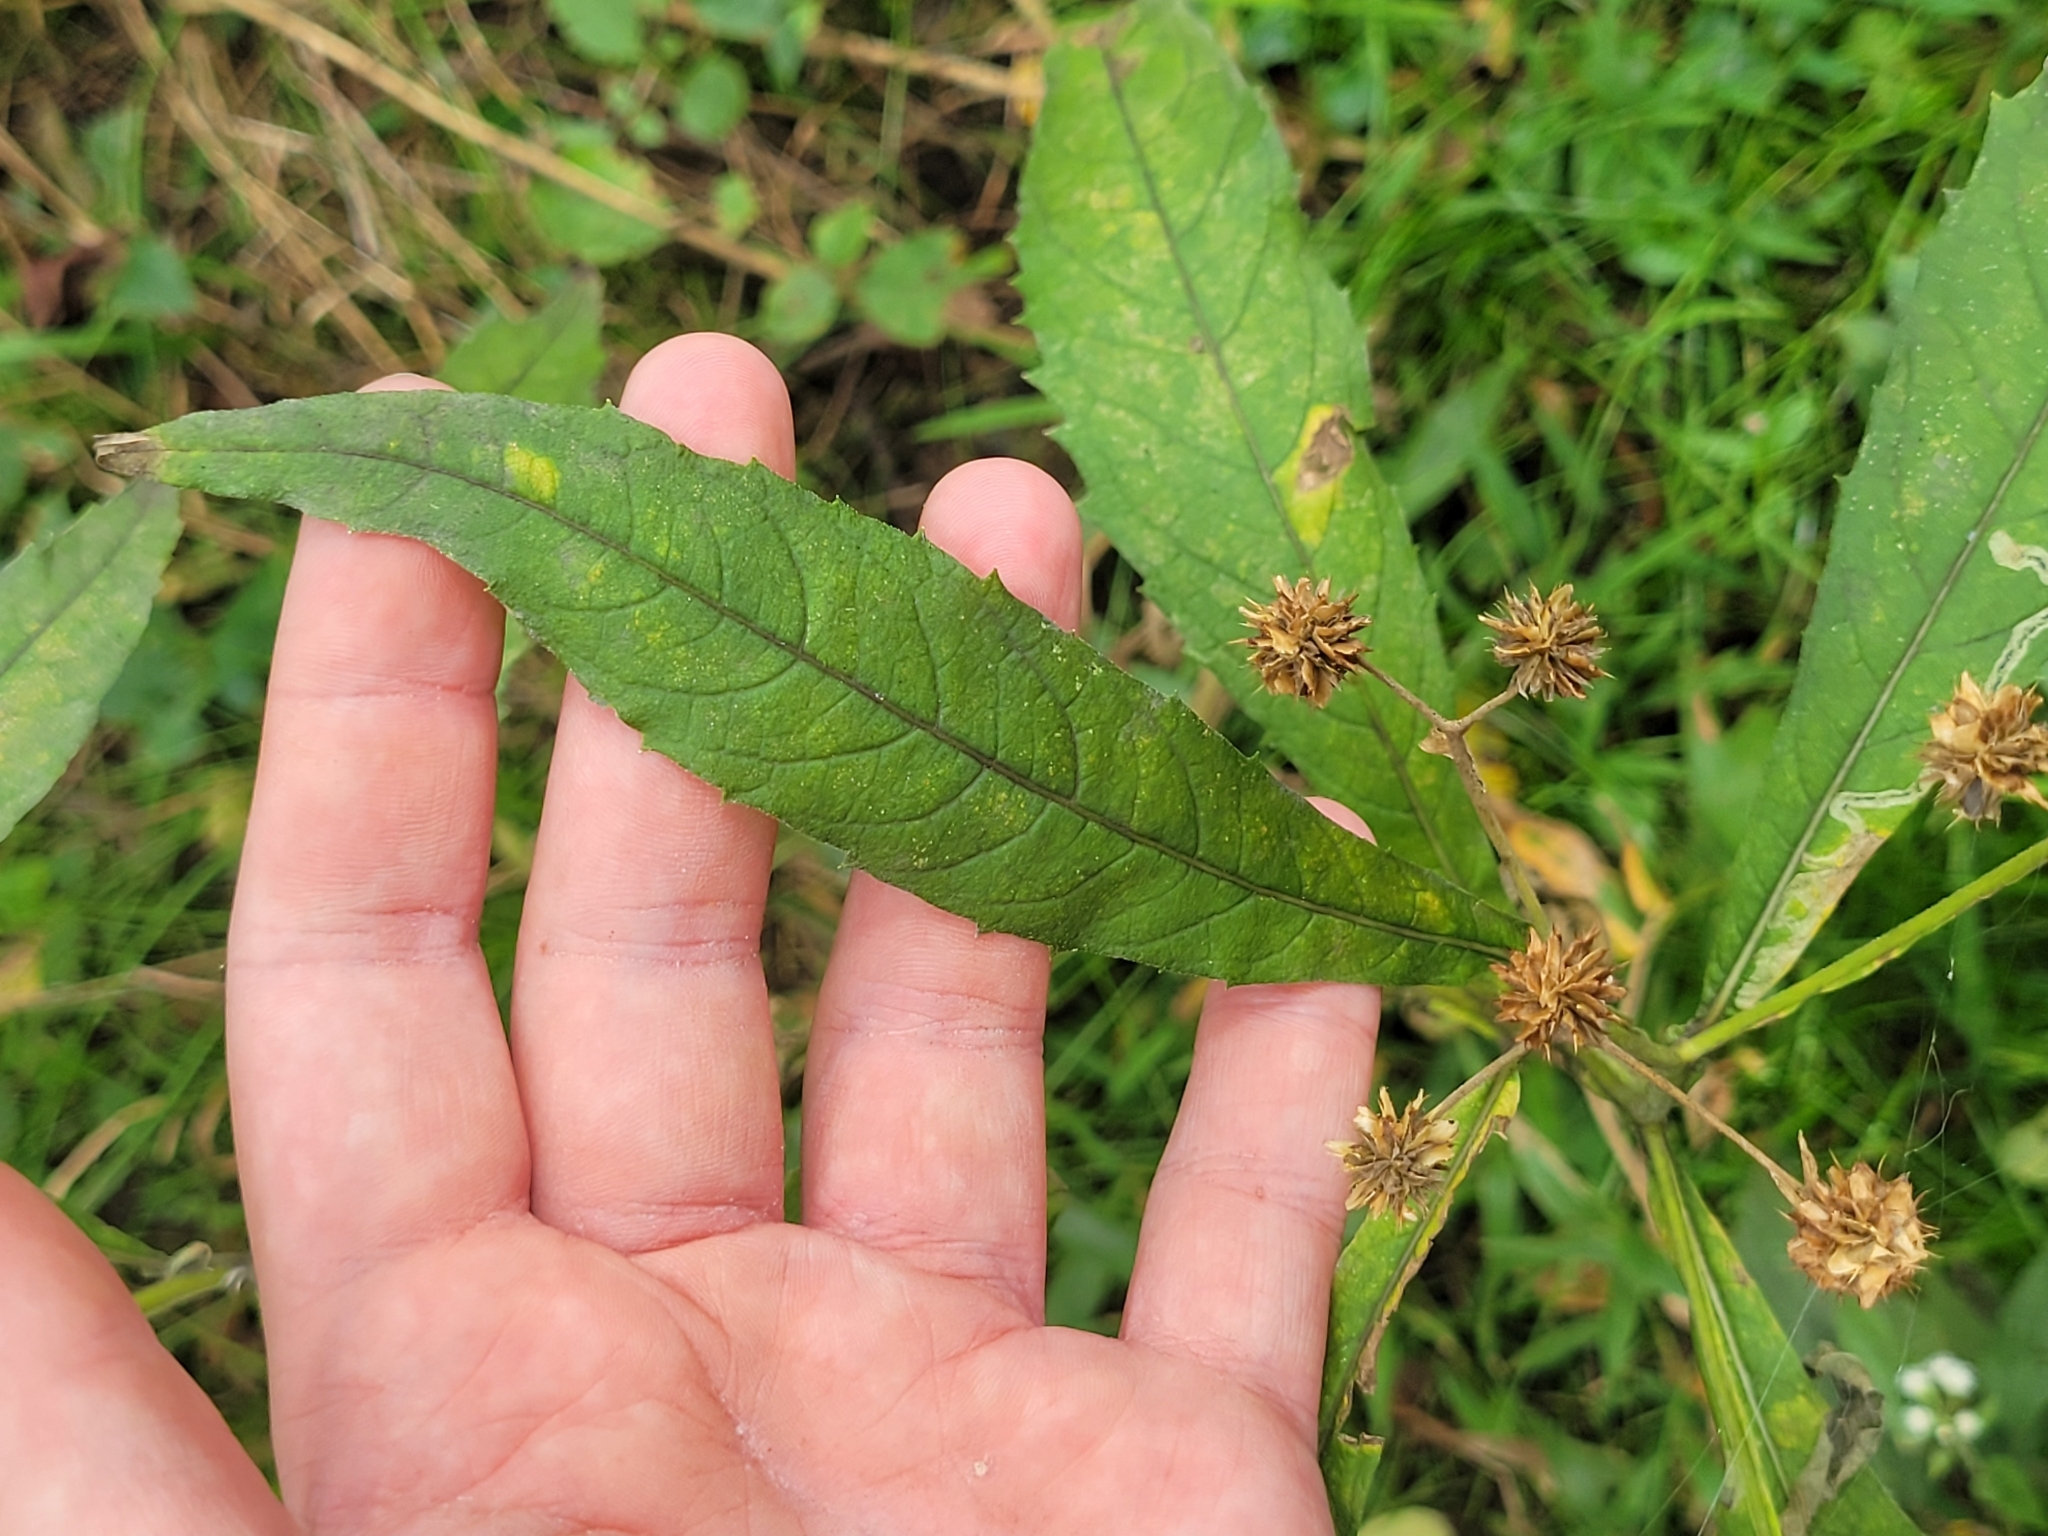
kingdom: Plantae
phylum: Tracheophyta
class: Magnoliopsida
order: Asterales
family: Asteraceae
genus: Verbesina
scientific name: Verbesina alternifolia
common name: Wingstem
